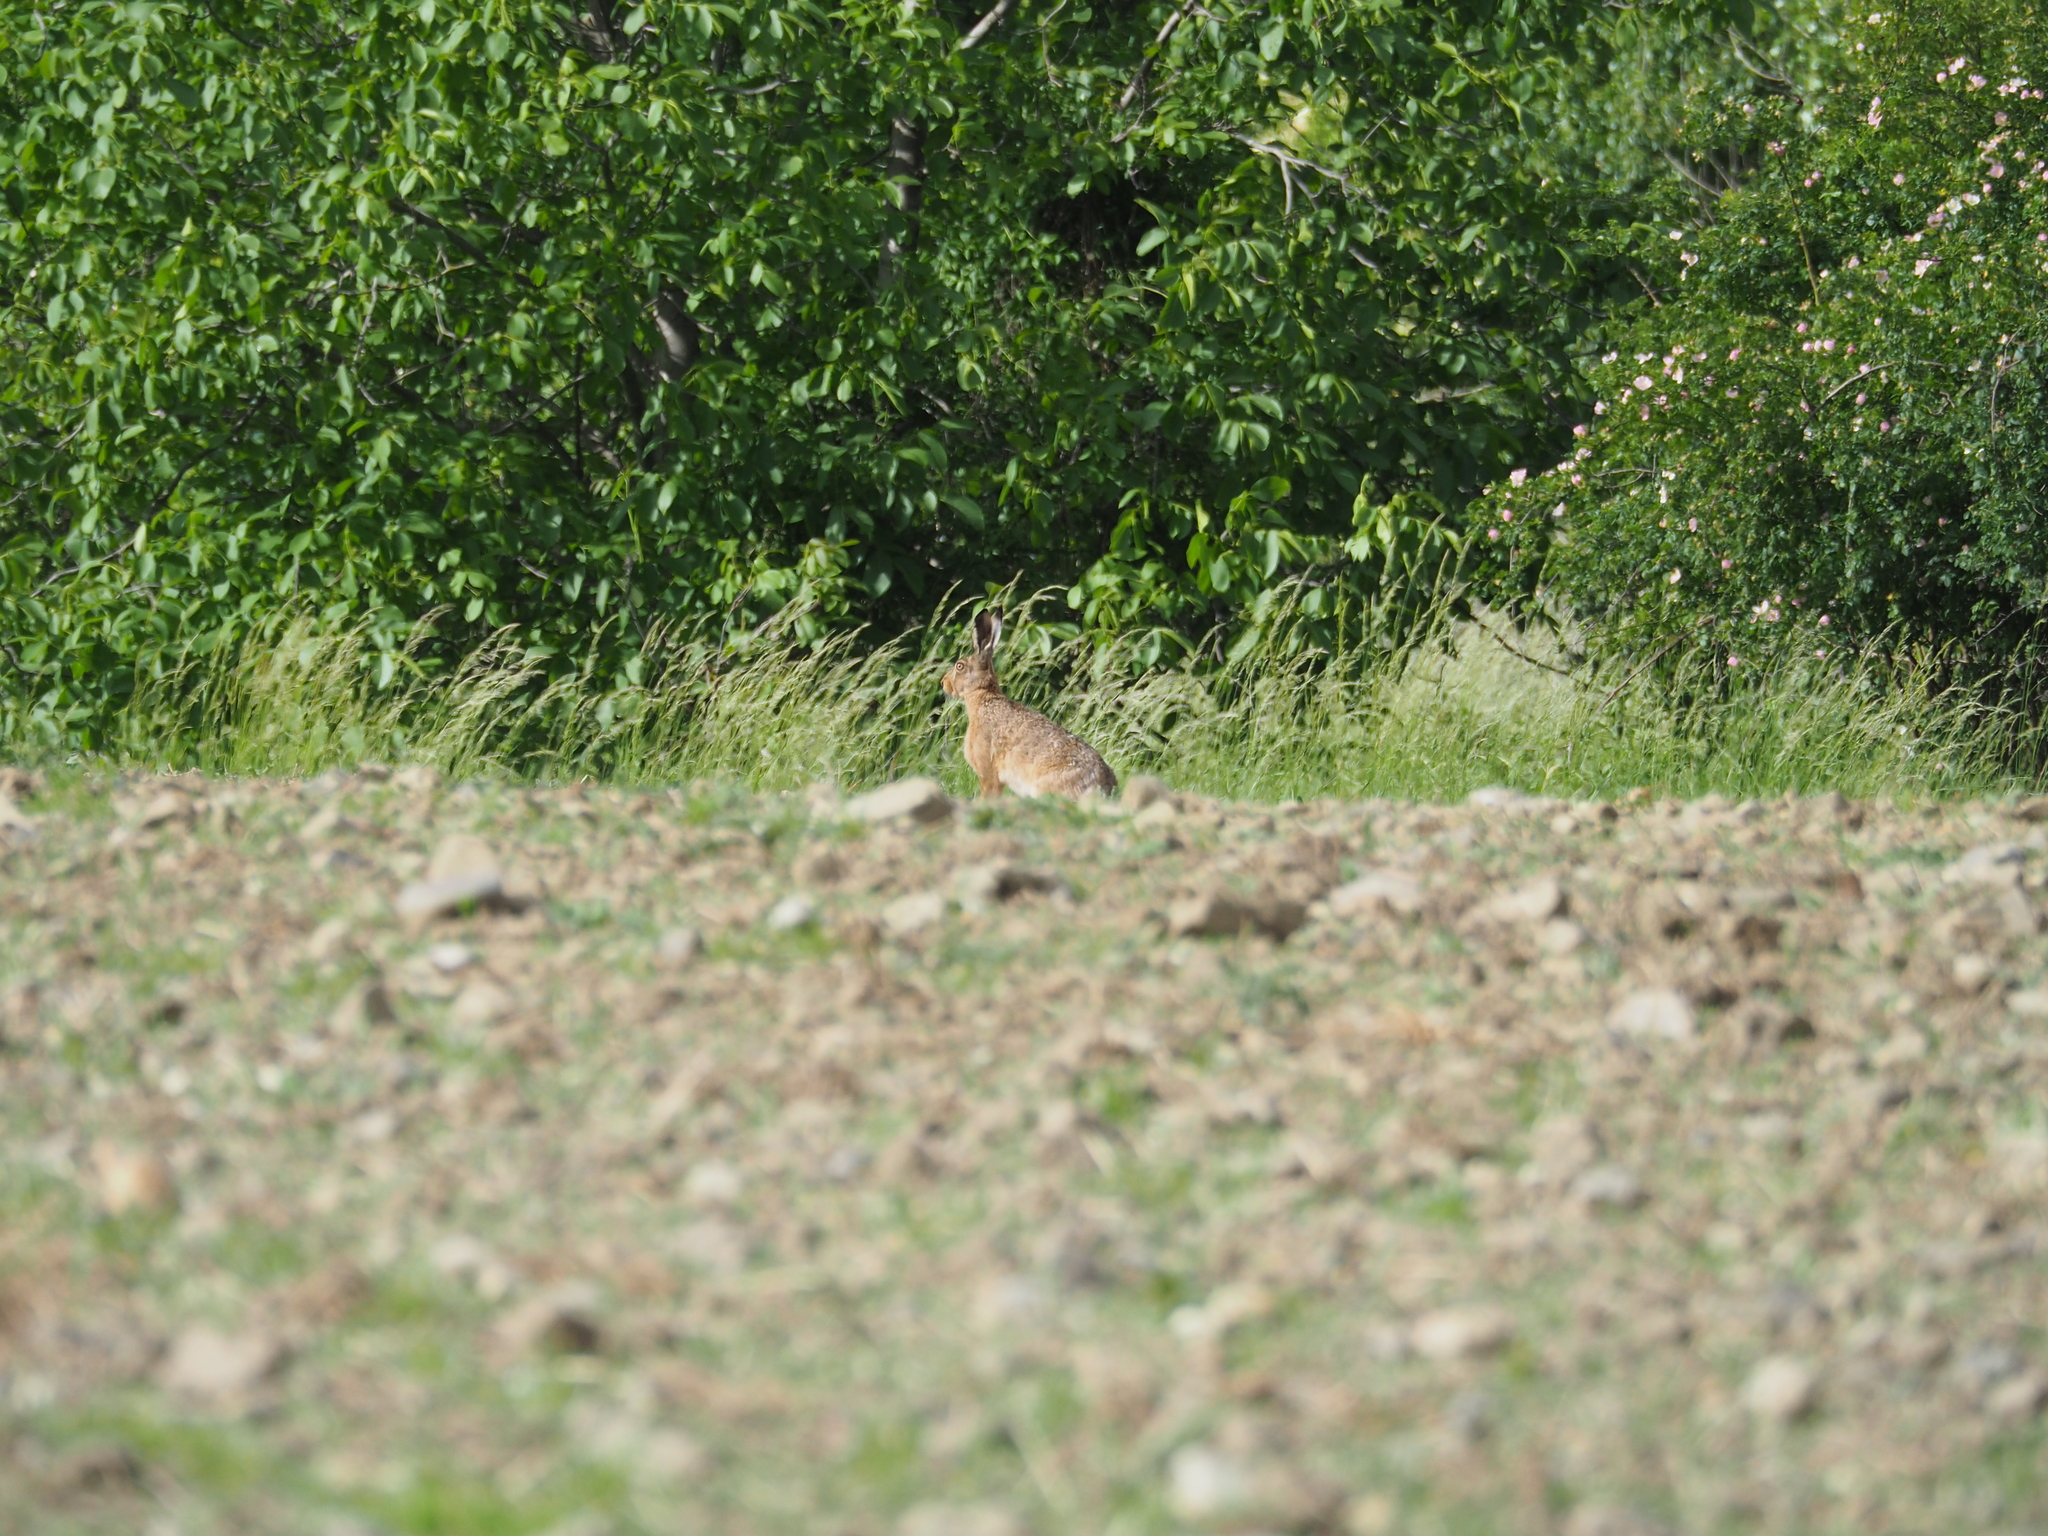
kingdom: Animalia
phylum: Chordata
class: Mammalia
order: Lagomorpha
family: Leporidae
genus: Lepus
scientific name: Lepus europaeus
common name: European hare
